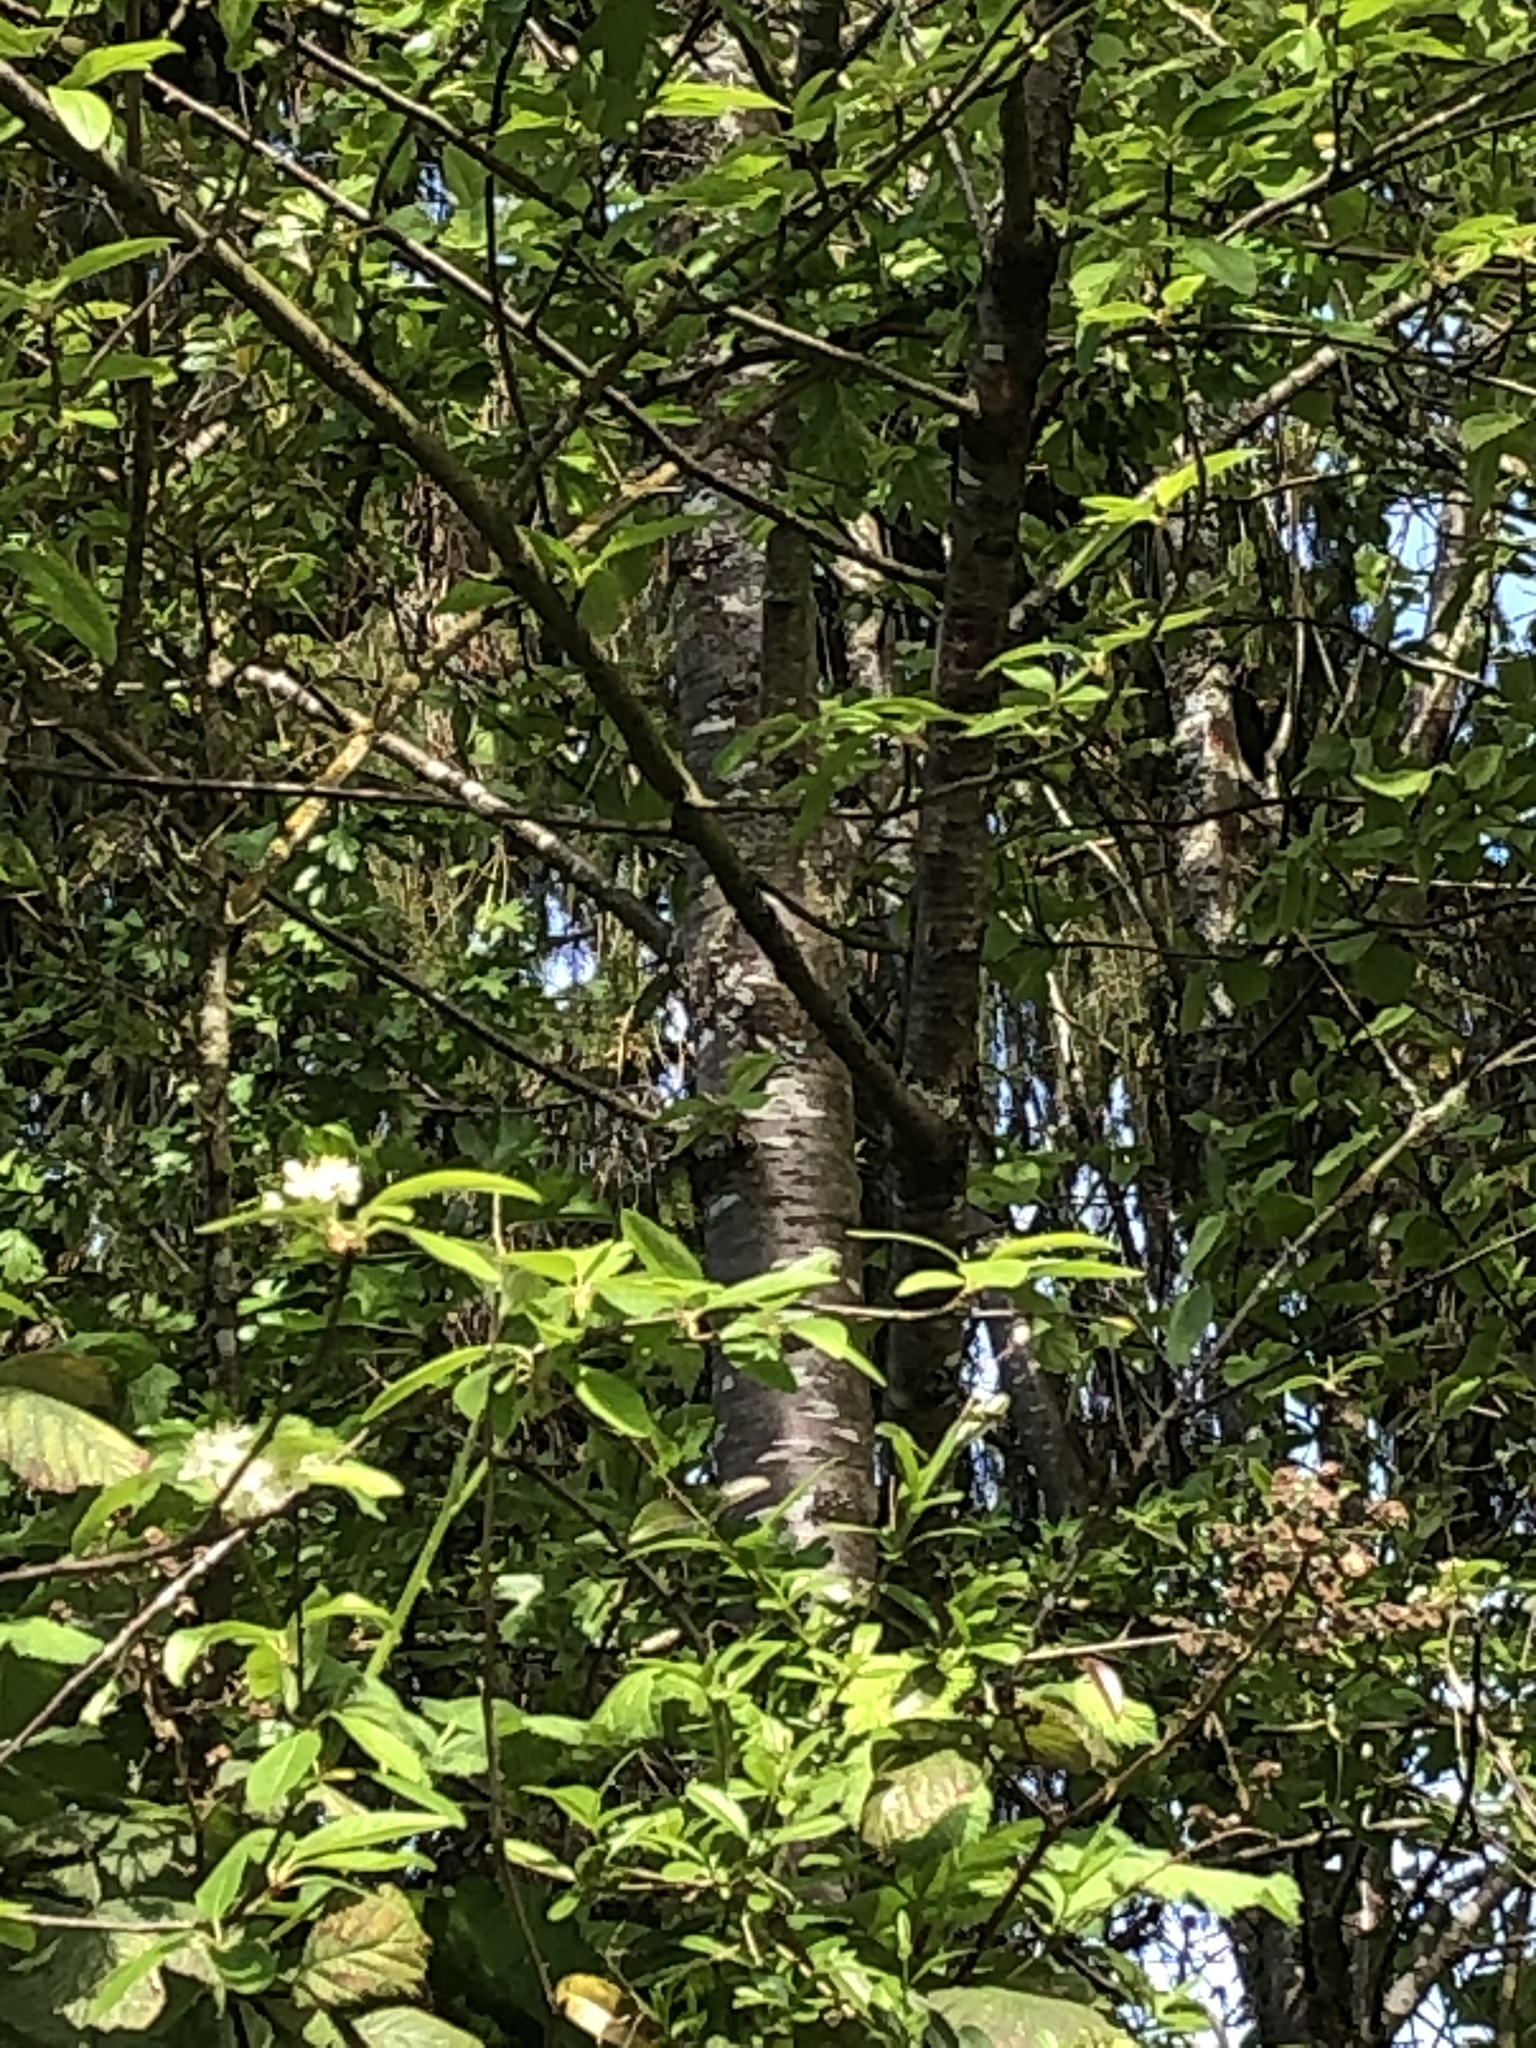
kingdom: Plantae
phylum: Tracheophyta
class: Magnoliopsida
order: Rosales
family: Rosaceae
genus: Prunus
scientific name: Prunus emarginata
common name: Bitter cherry
